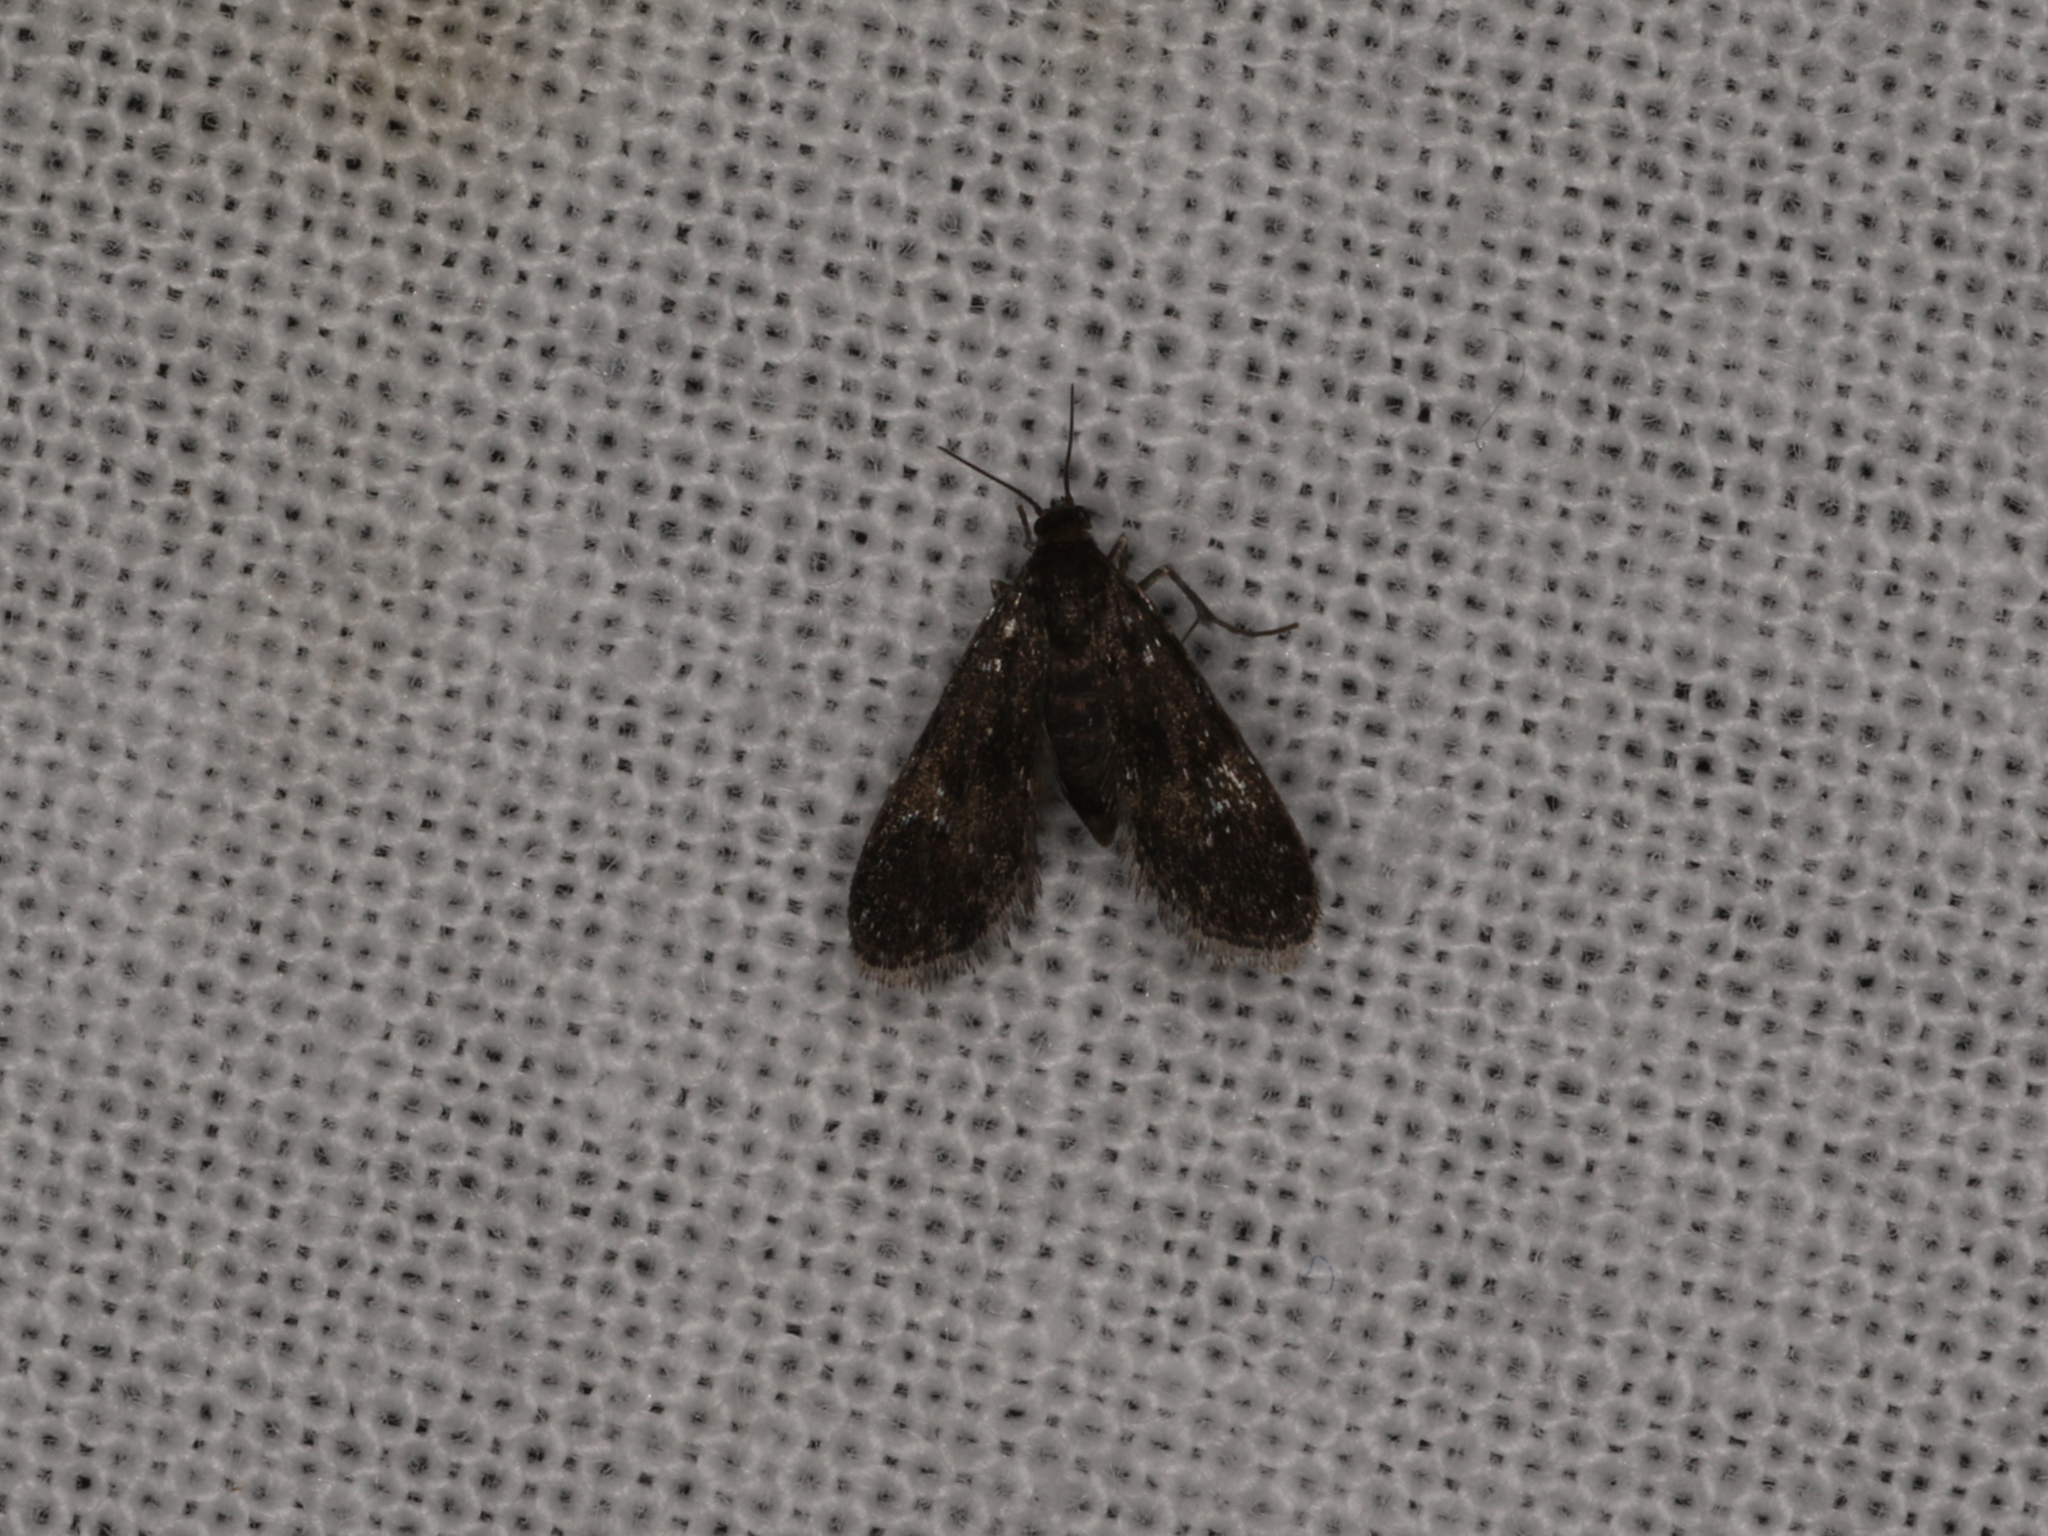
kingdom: Animalia
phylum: Arthropoda
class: Insecta
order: Lepidoptera
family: Crambidae
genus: Elophila
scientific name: Elophila tinealis
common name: Black duckweed moth
